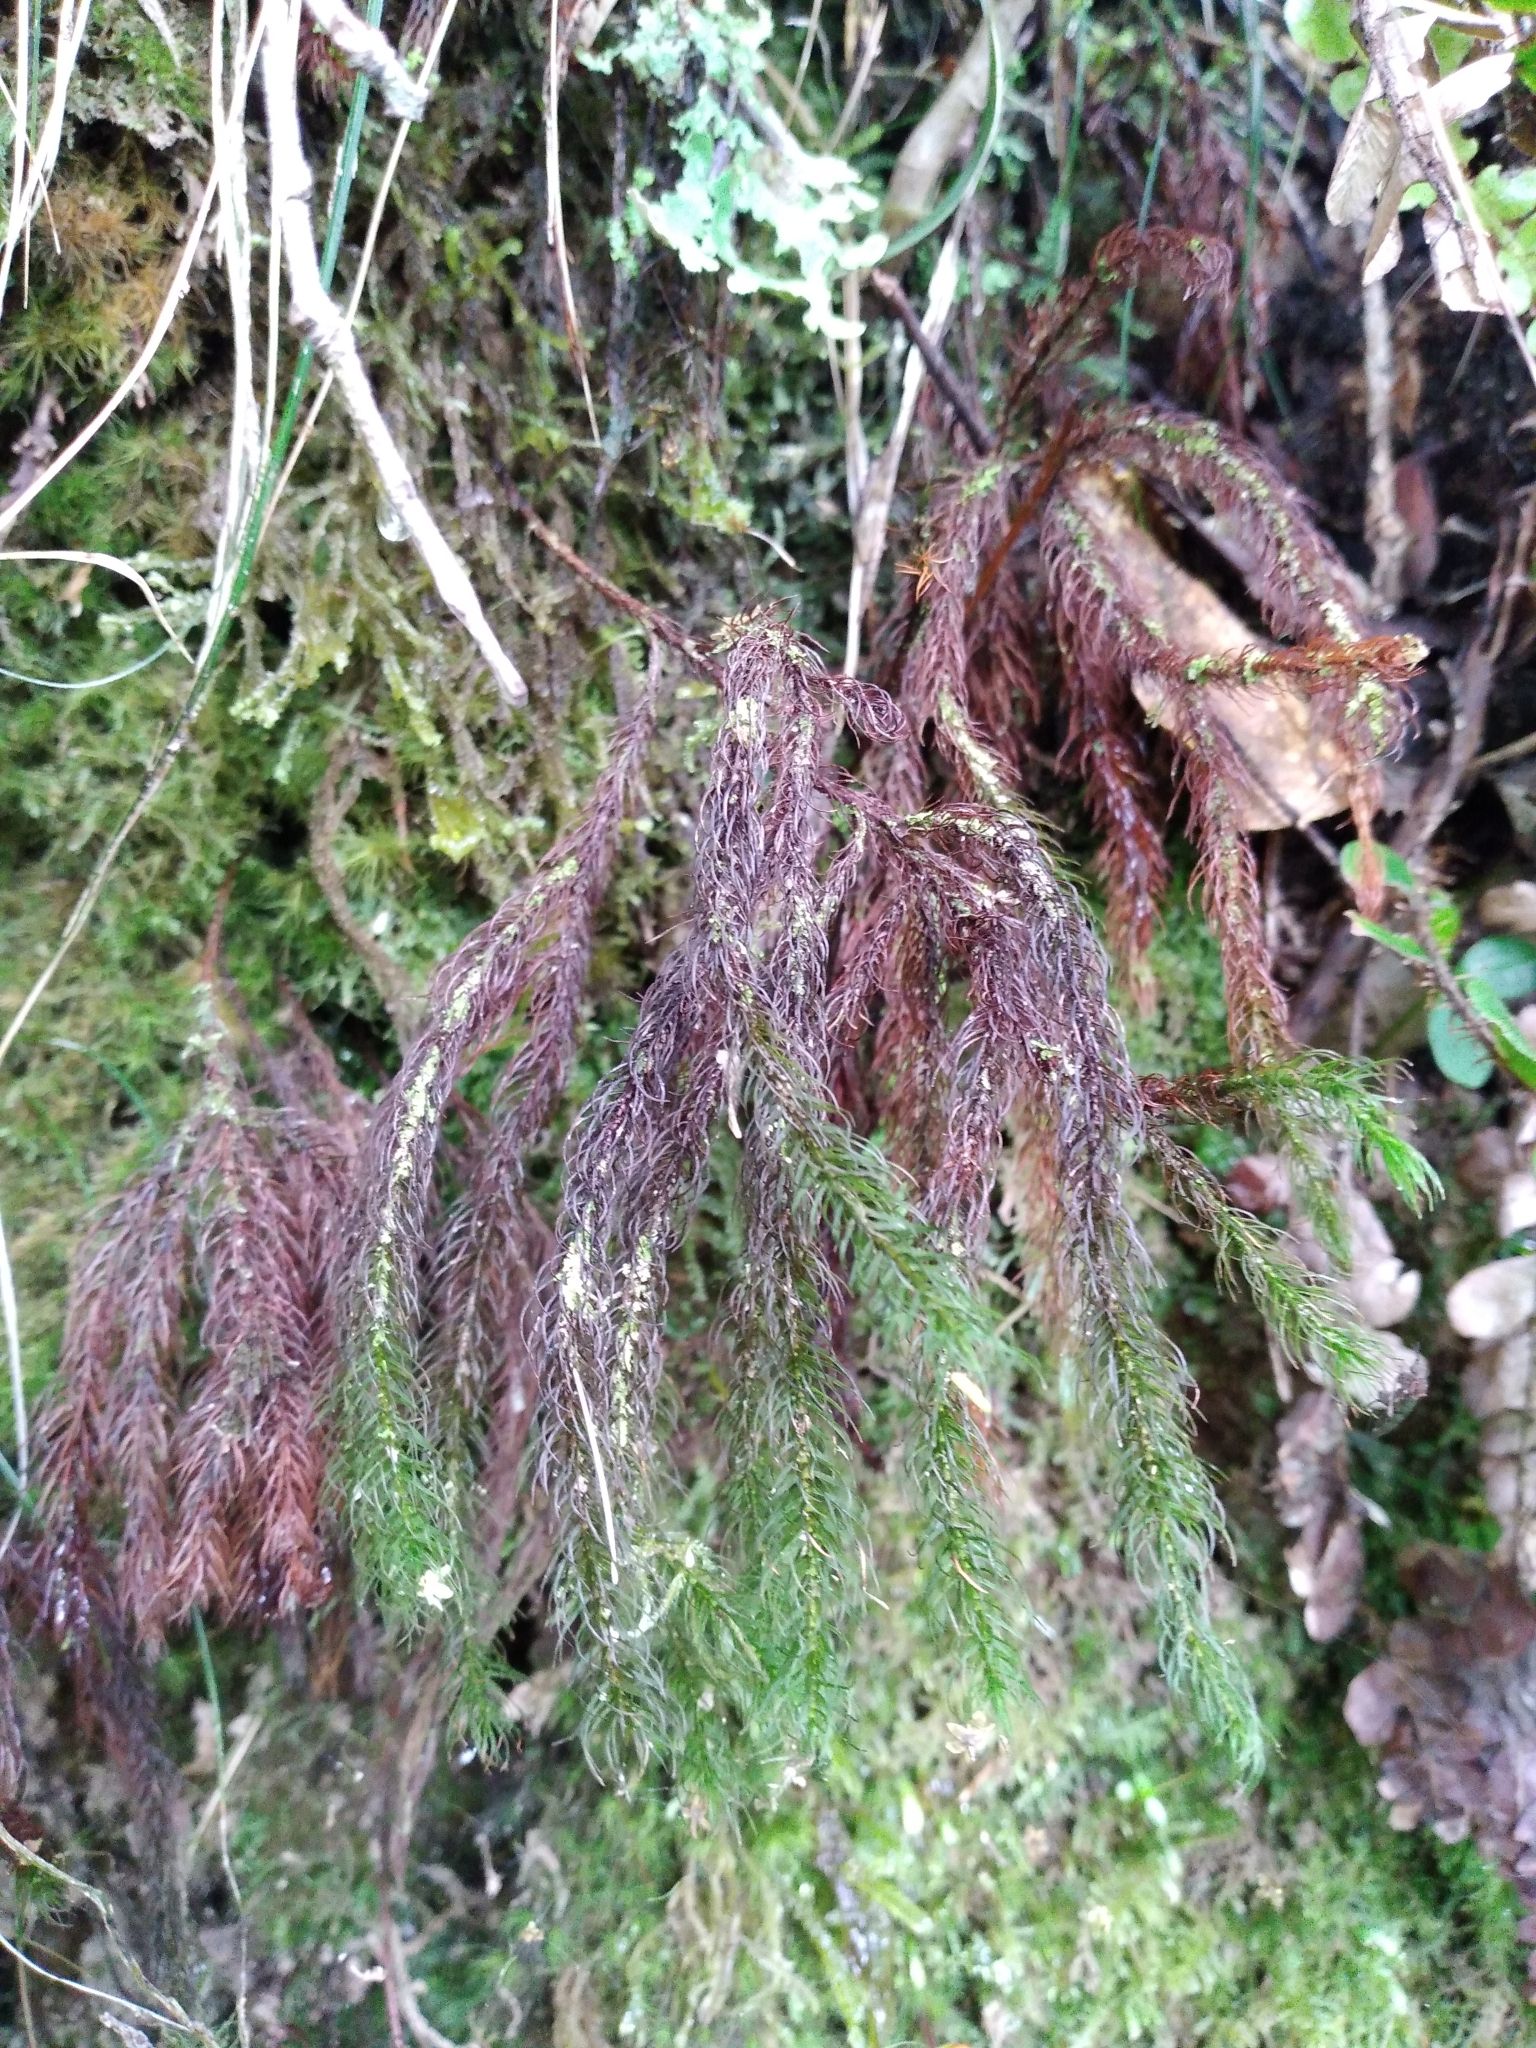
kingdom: Plantae
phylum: Bryophyta
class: Polytrichopsida
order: Polytrichales
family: Polytrichaceae
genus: Dendroligotrichum
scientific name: Dendroligotrichum tongariroense
